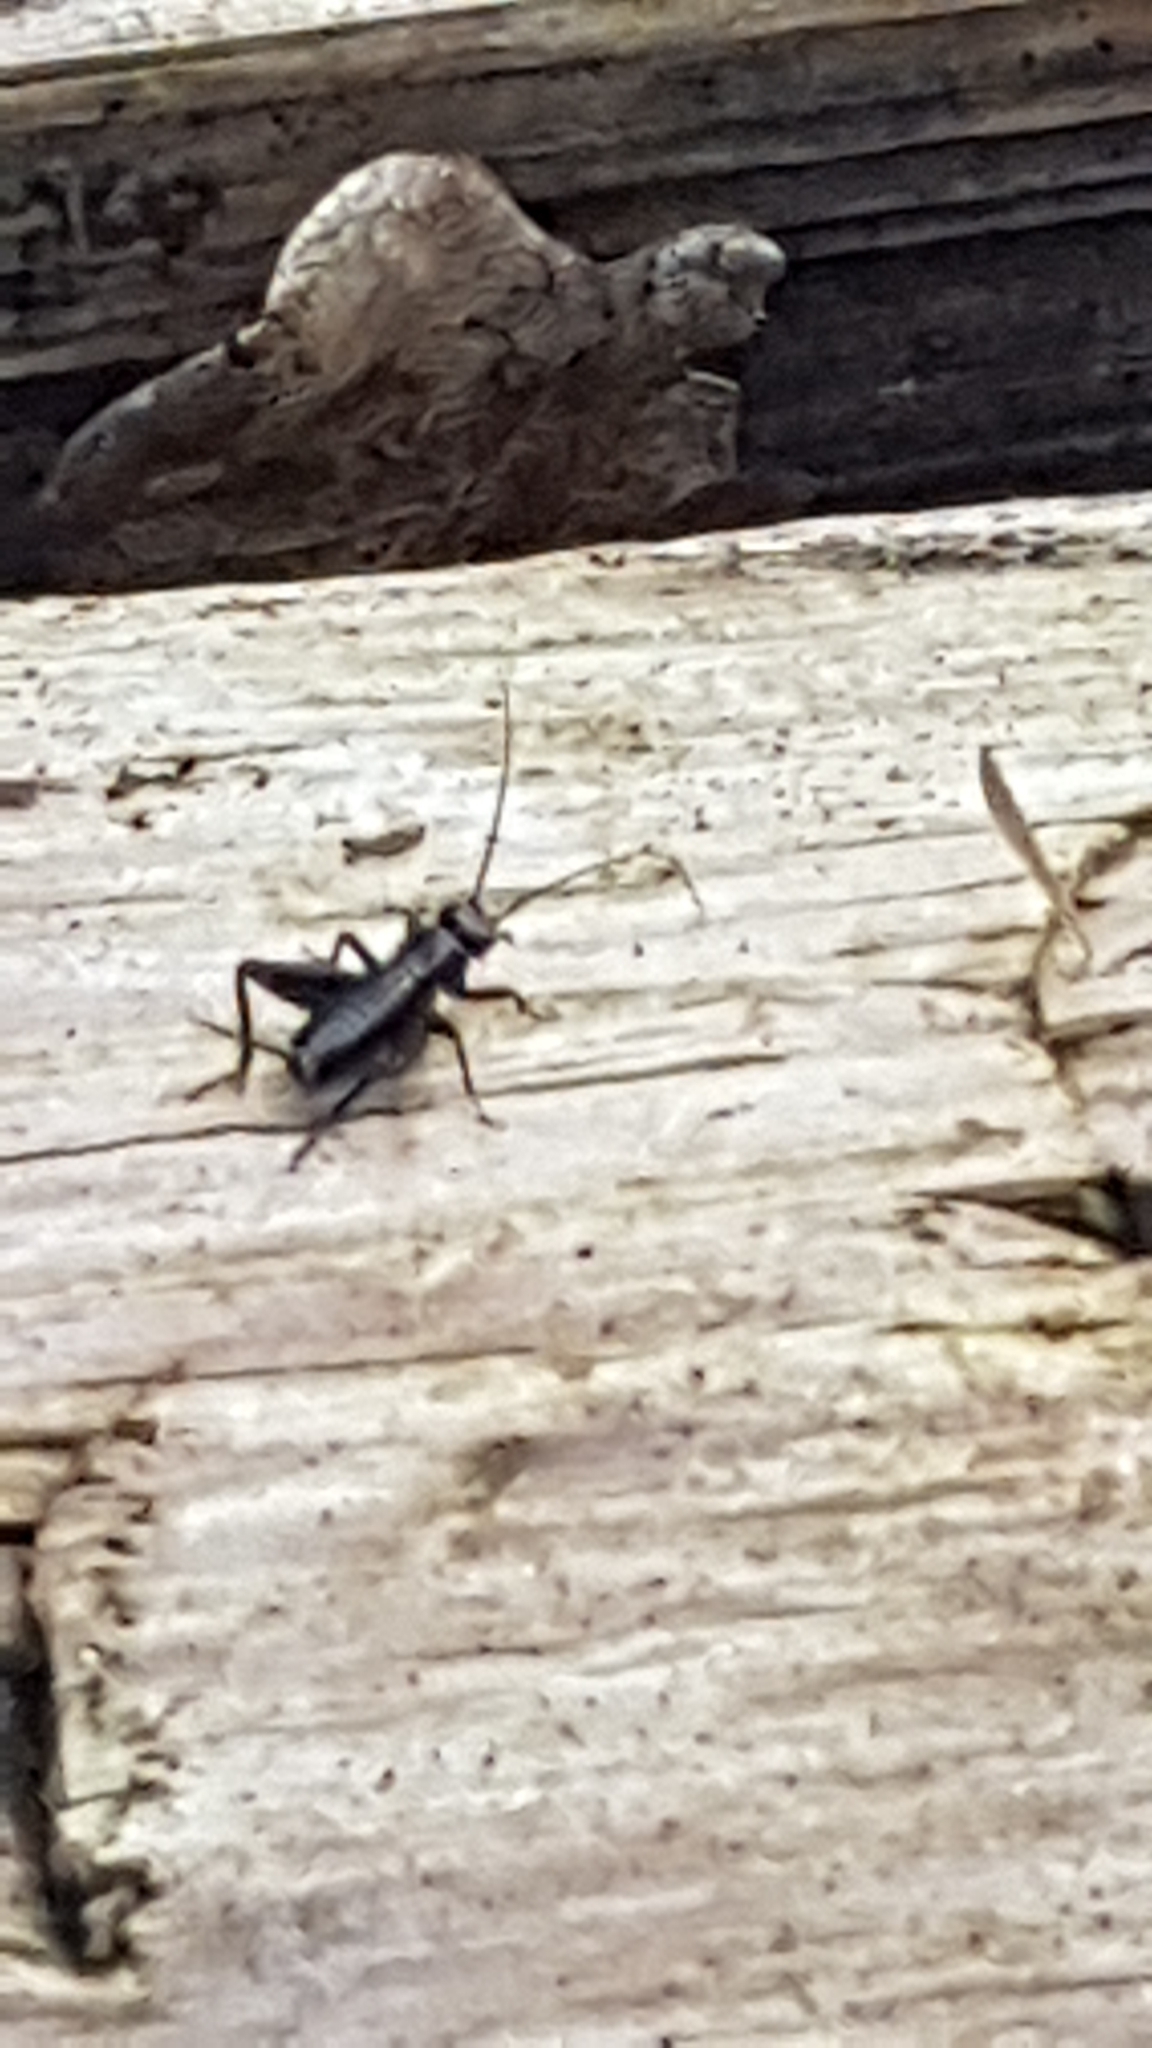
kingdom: Animalia
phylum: Arthropoda
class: Insecta
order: Orthoptera
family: Trigonidiidae
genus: Nemobius
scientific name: Nemobius sylvestris
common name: Wood-cricket
